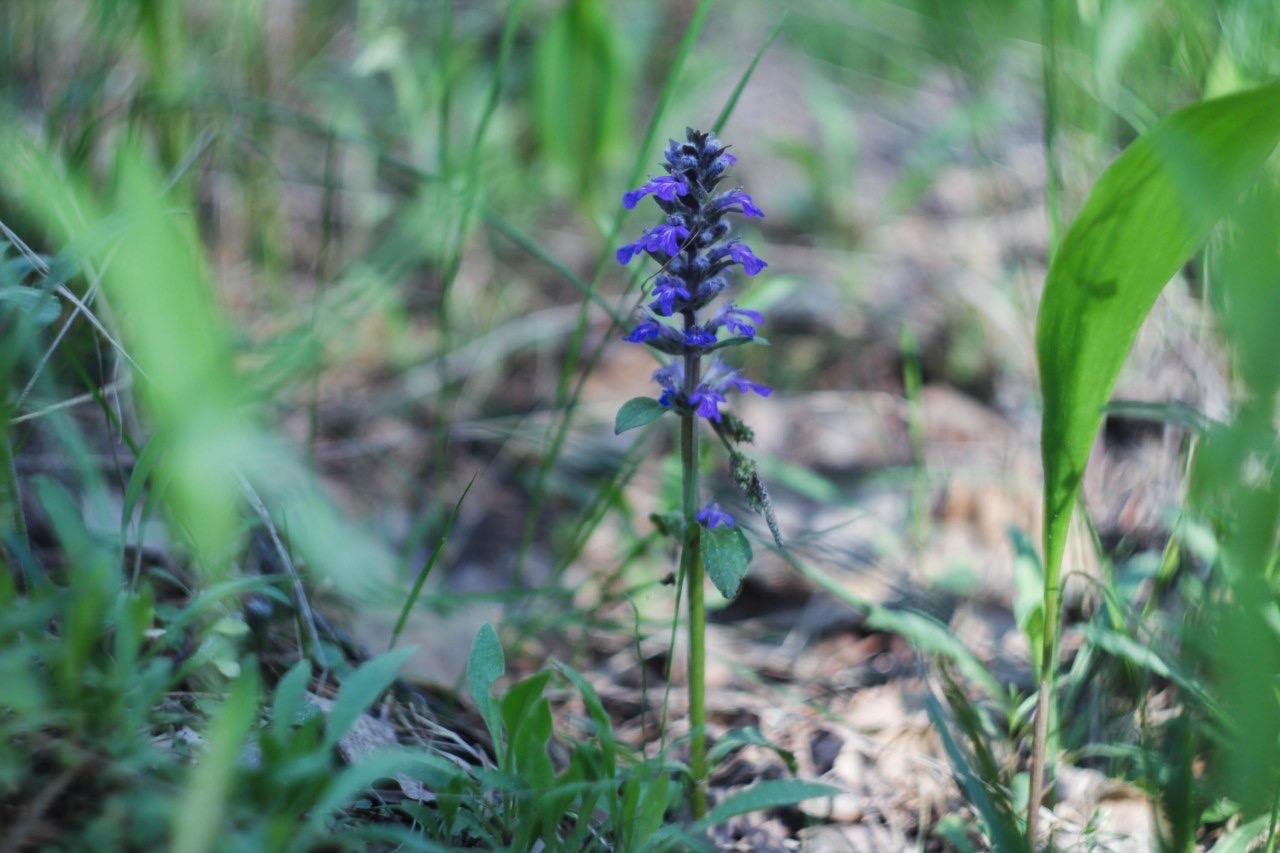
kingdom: Plantae
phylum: Tracheophyta
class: Magnoliopsida
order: Lamiales
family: Lamiaceae
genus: Ajuga
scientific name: Ajuga reptans
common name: Bugle
